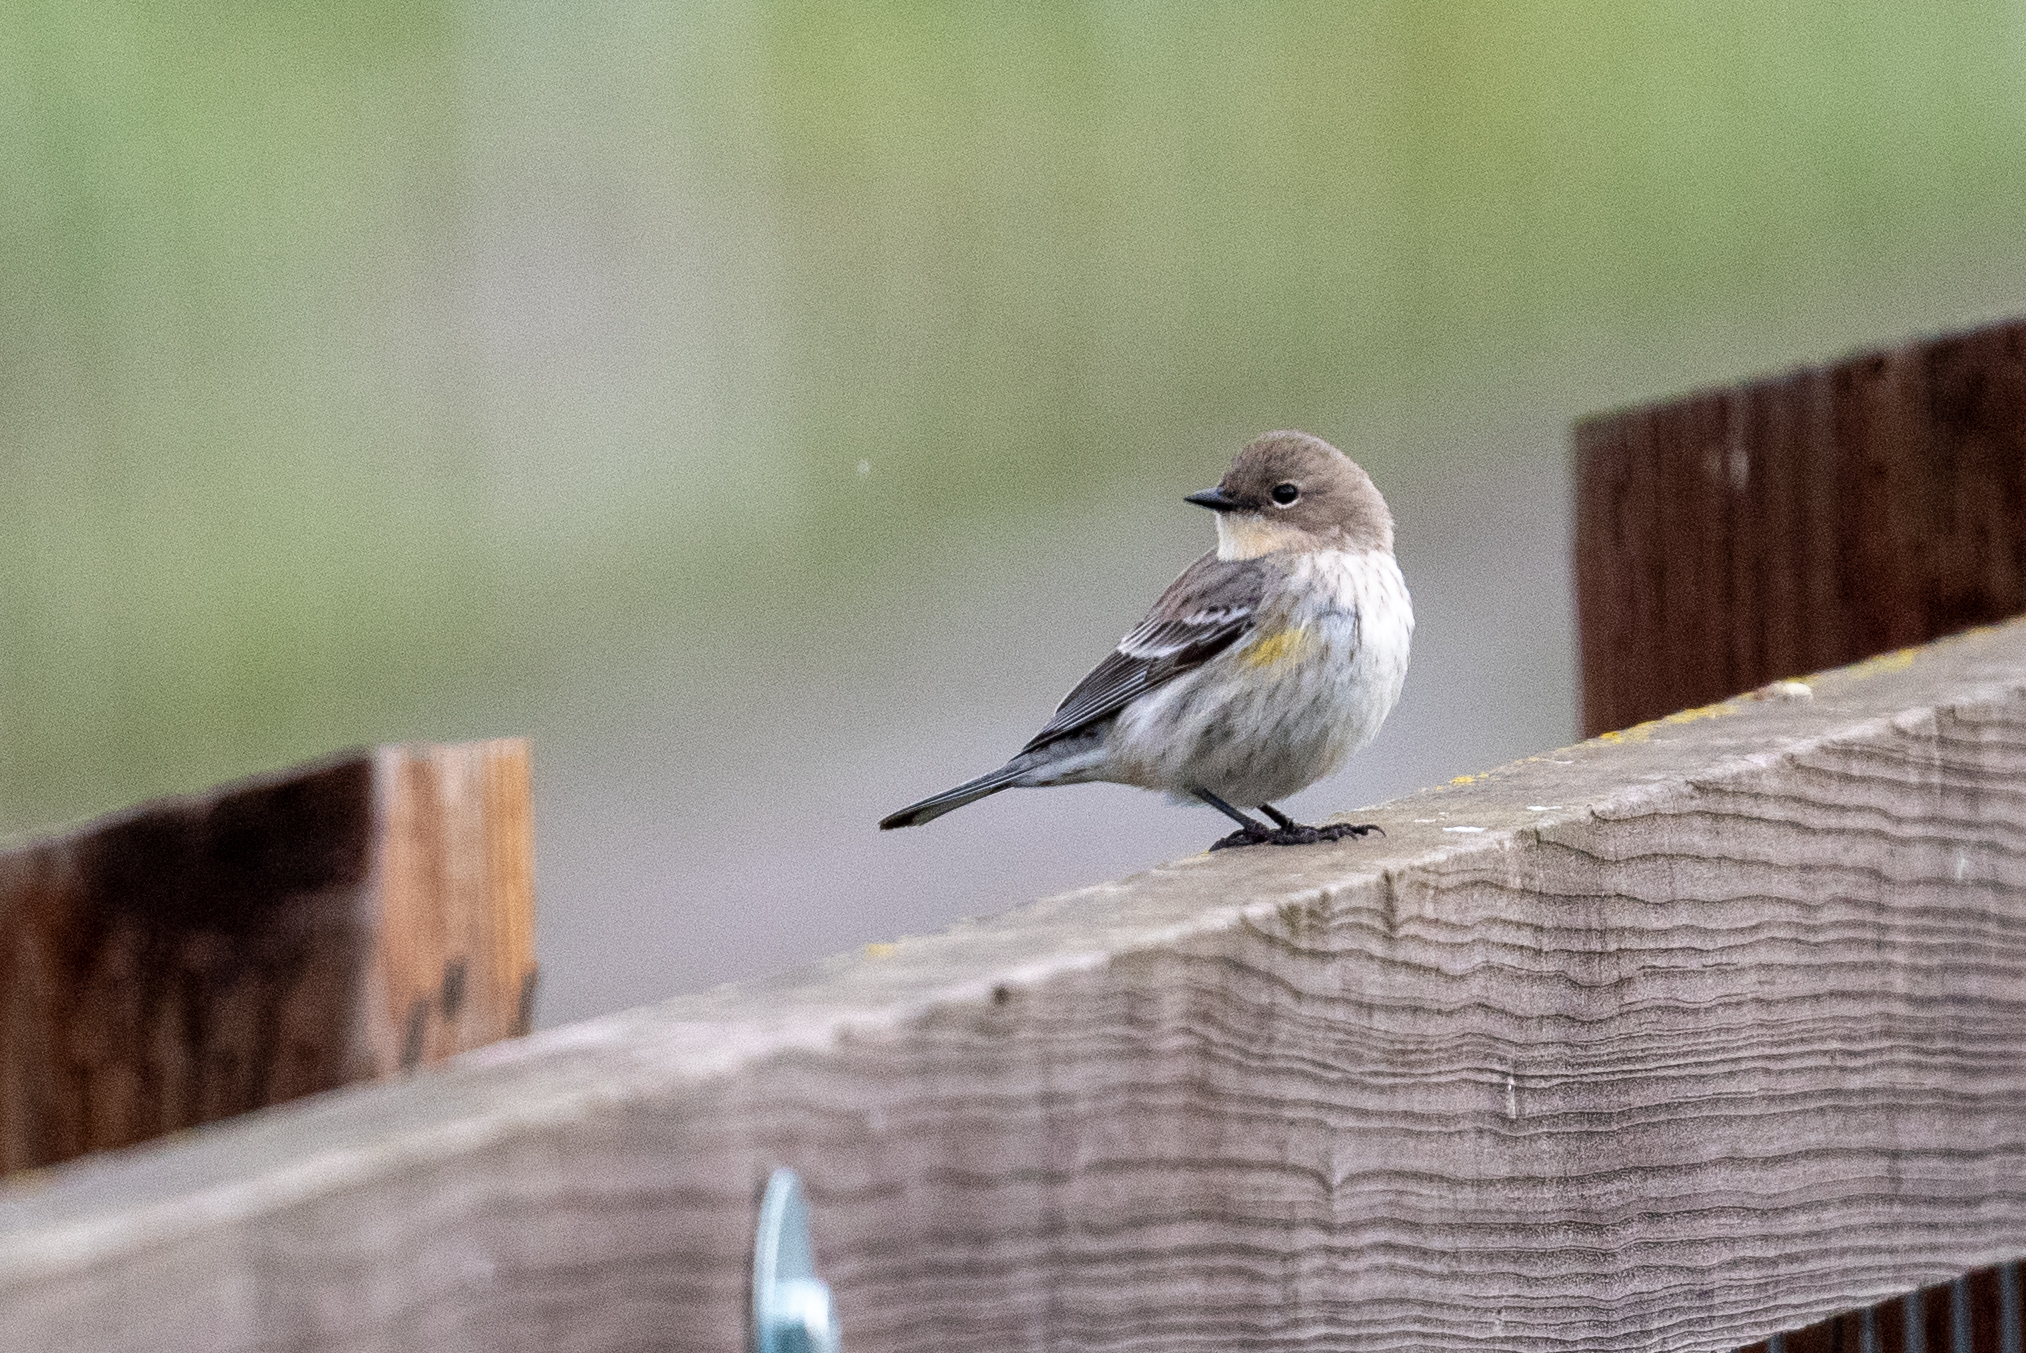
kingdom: Animalia
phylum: Chordata
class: Aves
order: Passeriformes
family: Parulidae
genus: Setophaga
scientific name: Setophaga coronata
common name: Myrtle warbler
